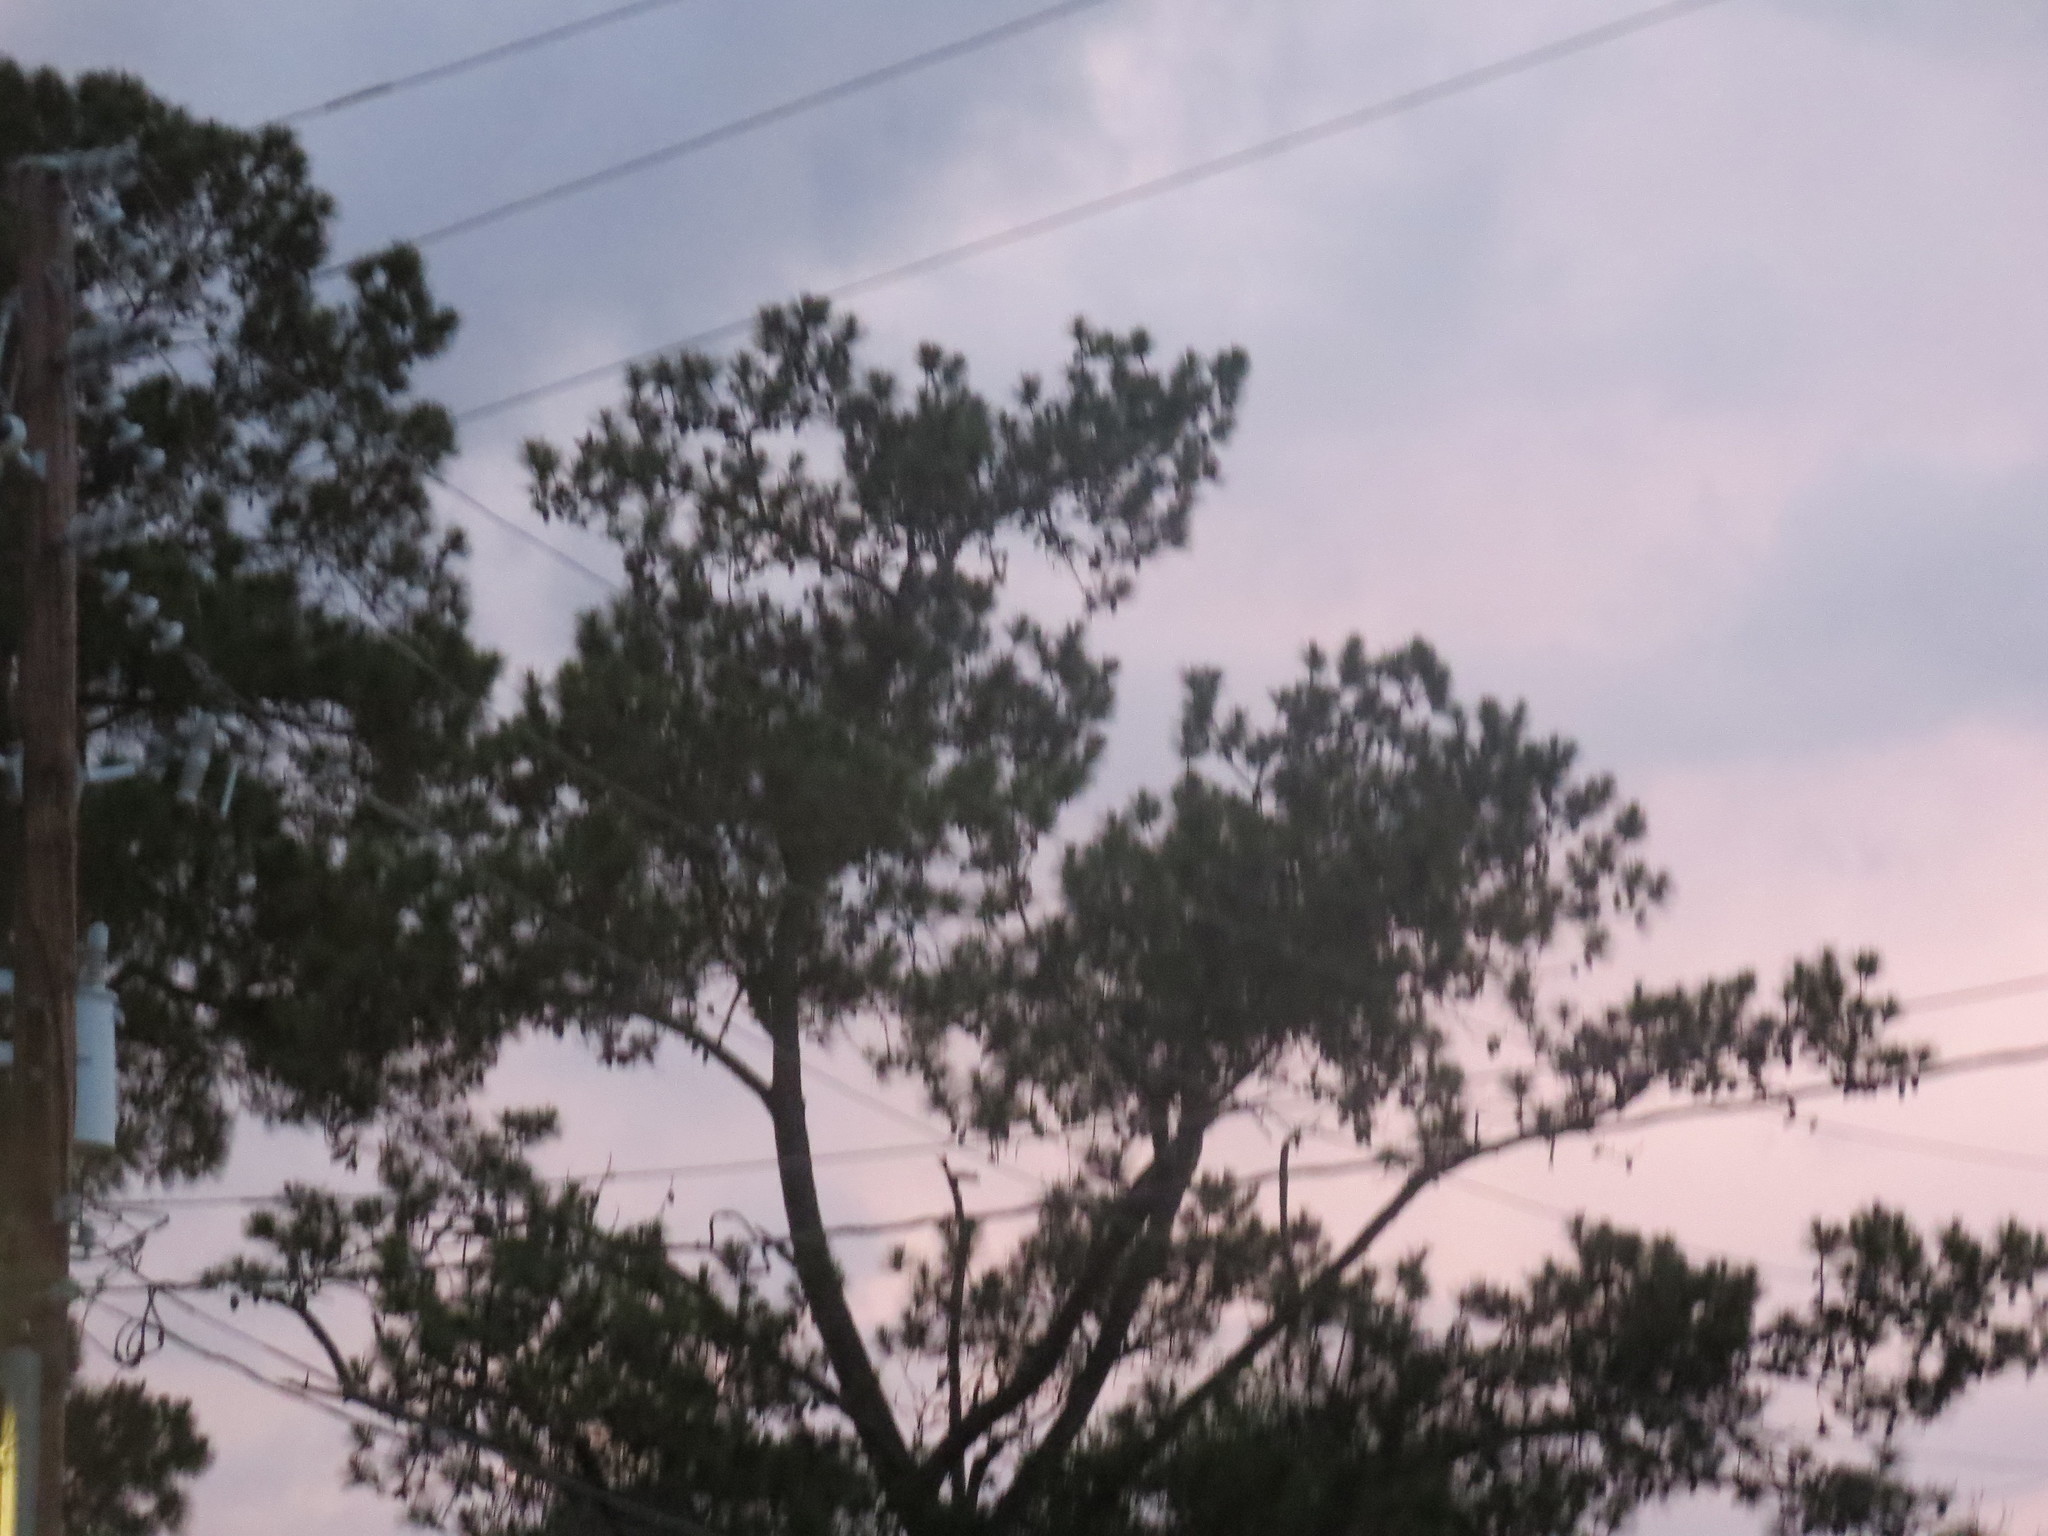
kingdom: Plantae
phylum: Tracheophyta
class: Pinopsida
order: Pinales
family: Pinaceae
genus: Pinus
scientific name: Pinus
